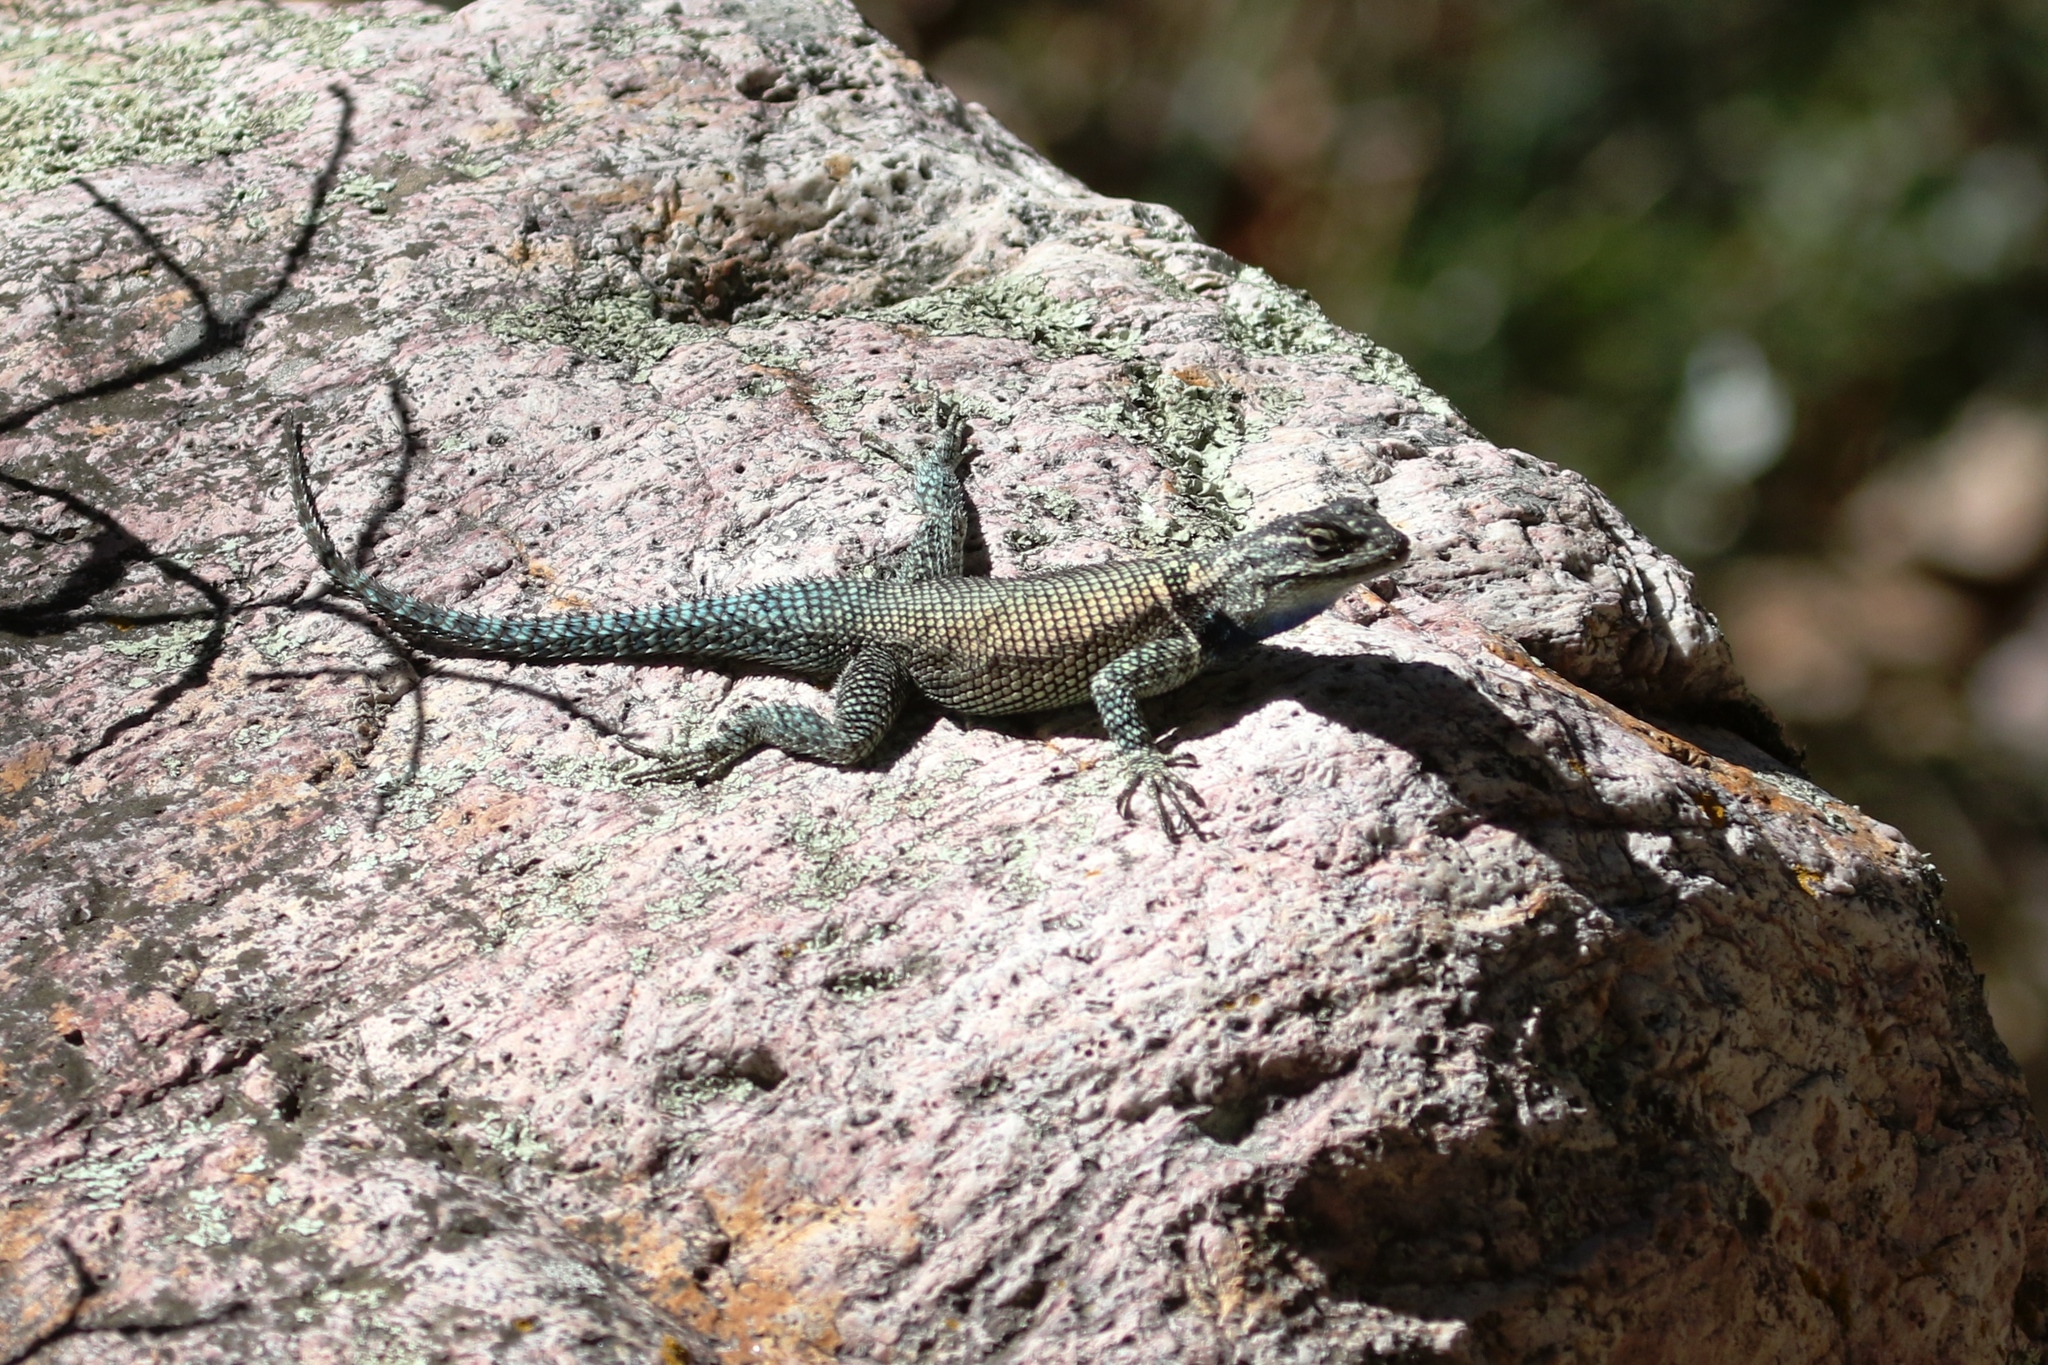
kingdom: Animalia
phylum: Chordata
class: Squamata
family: Phrynosomatidae
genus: Sceloporus
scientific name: Sceloporus jarrovii
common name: Yarrow's spiny lizard
